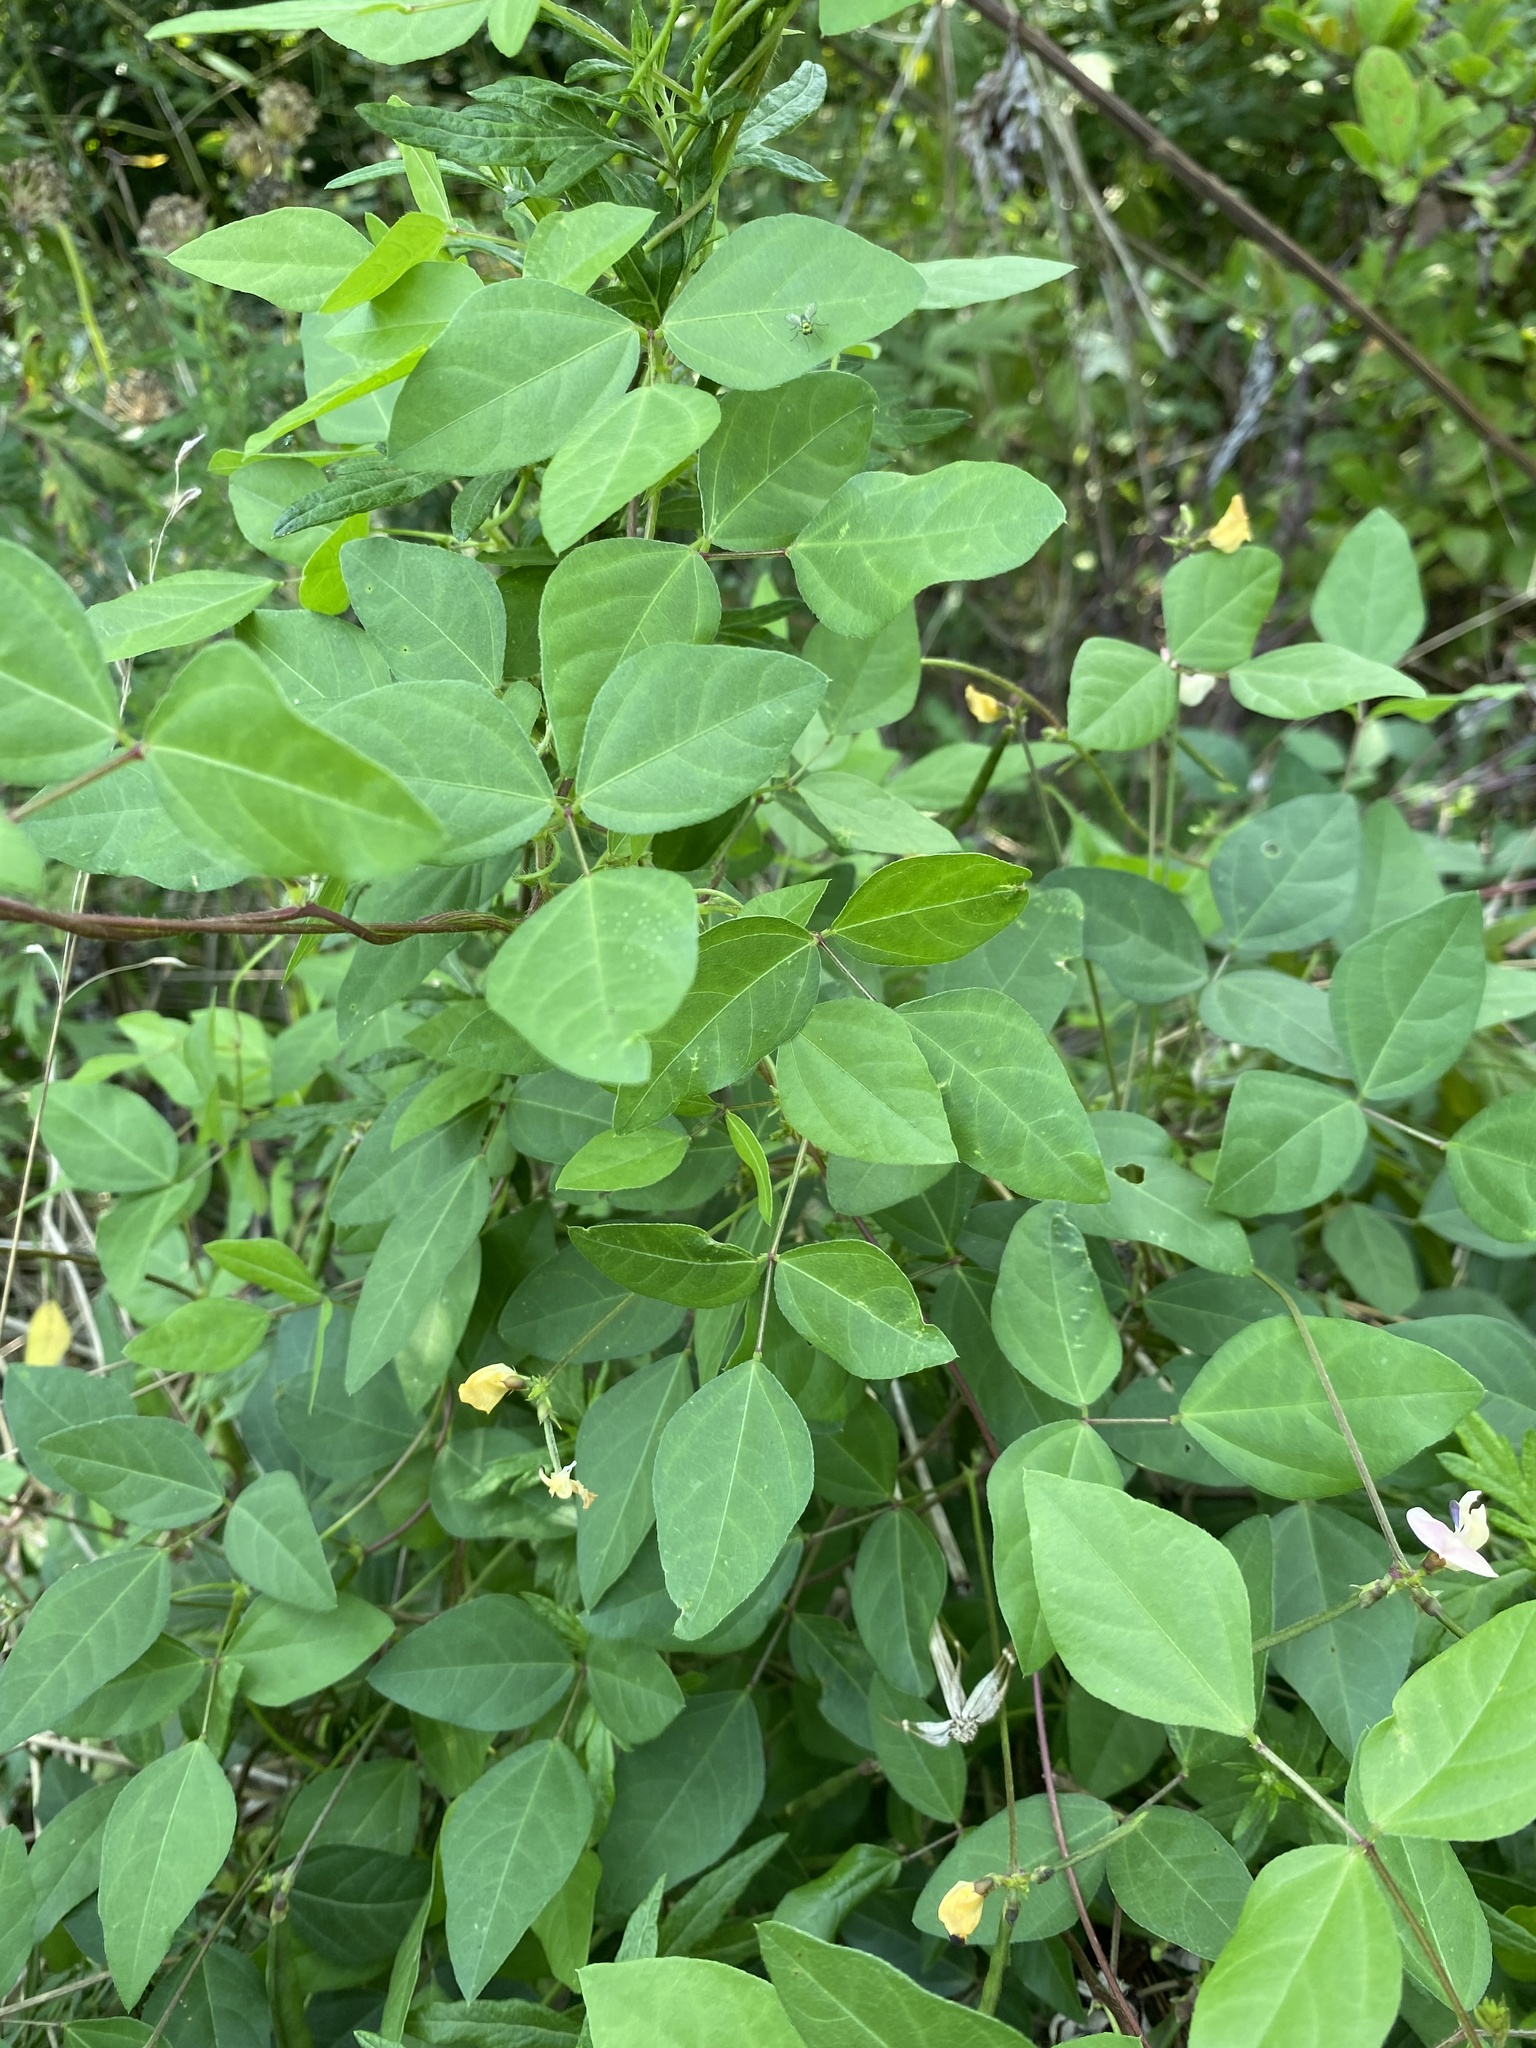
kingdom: Plantae
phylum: Tracheophyta
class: Magnoliopsida
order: Fabales
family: Fabaceae
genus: Strophostyles
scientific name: Strophostyles helvola
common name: Trailing wild bean
